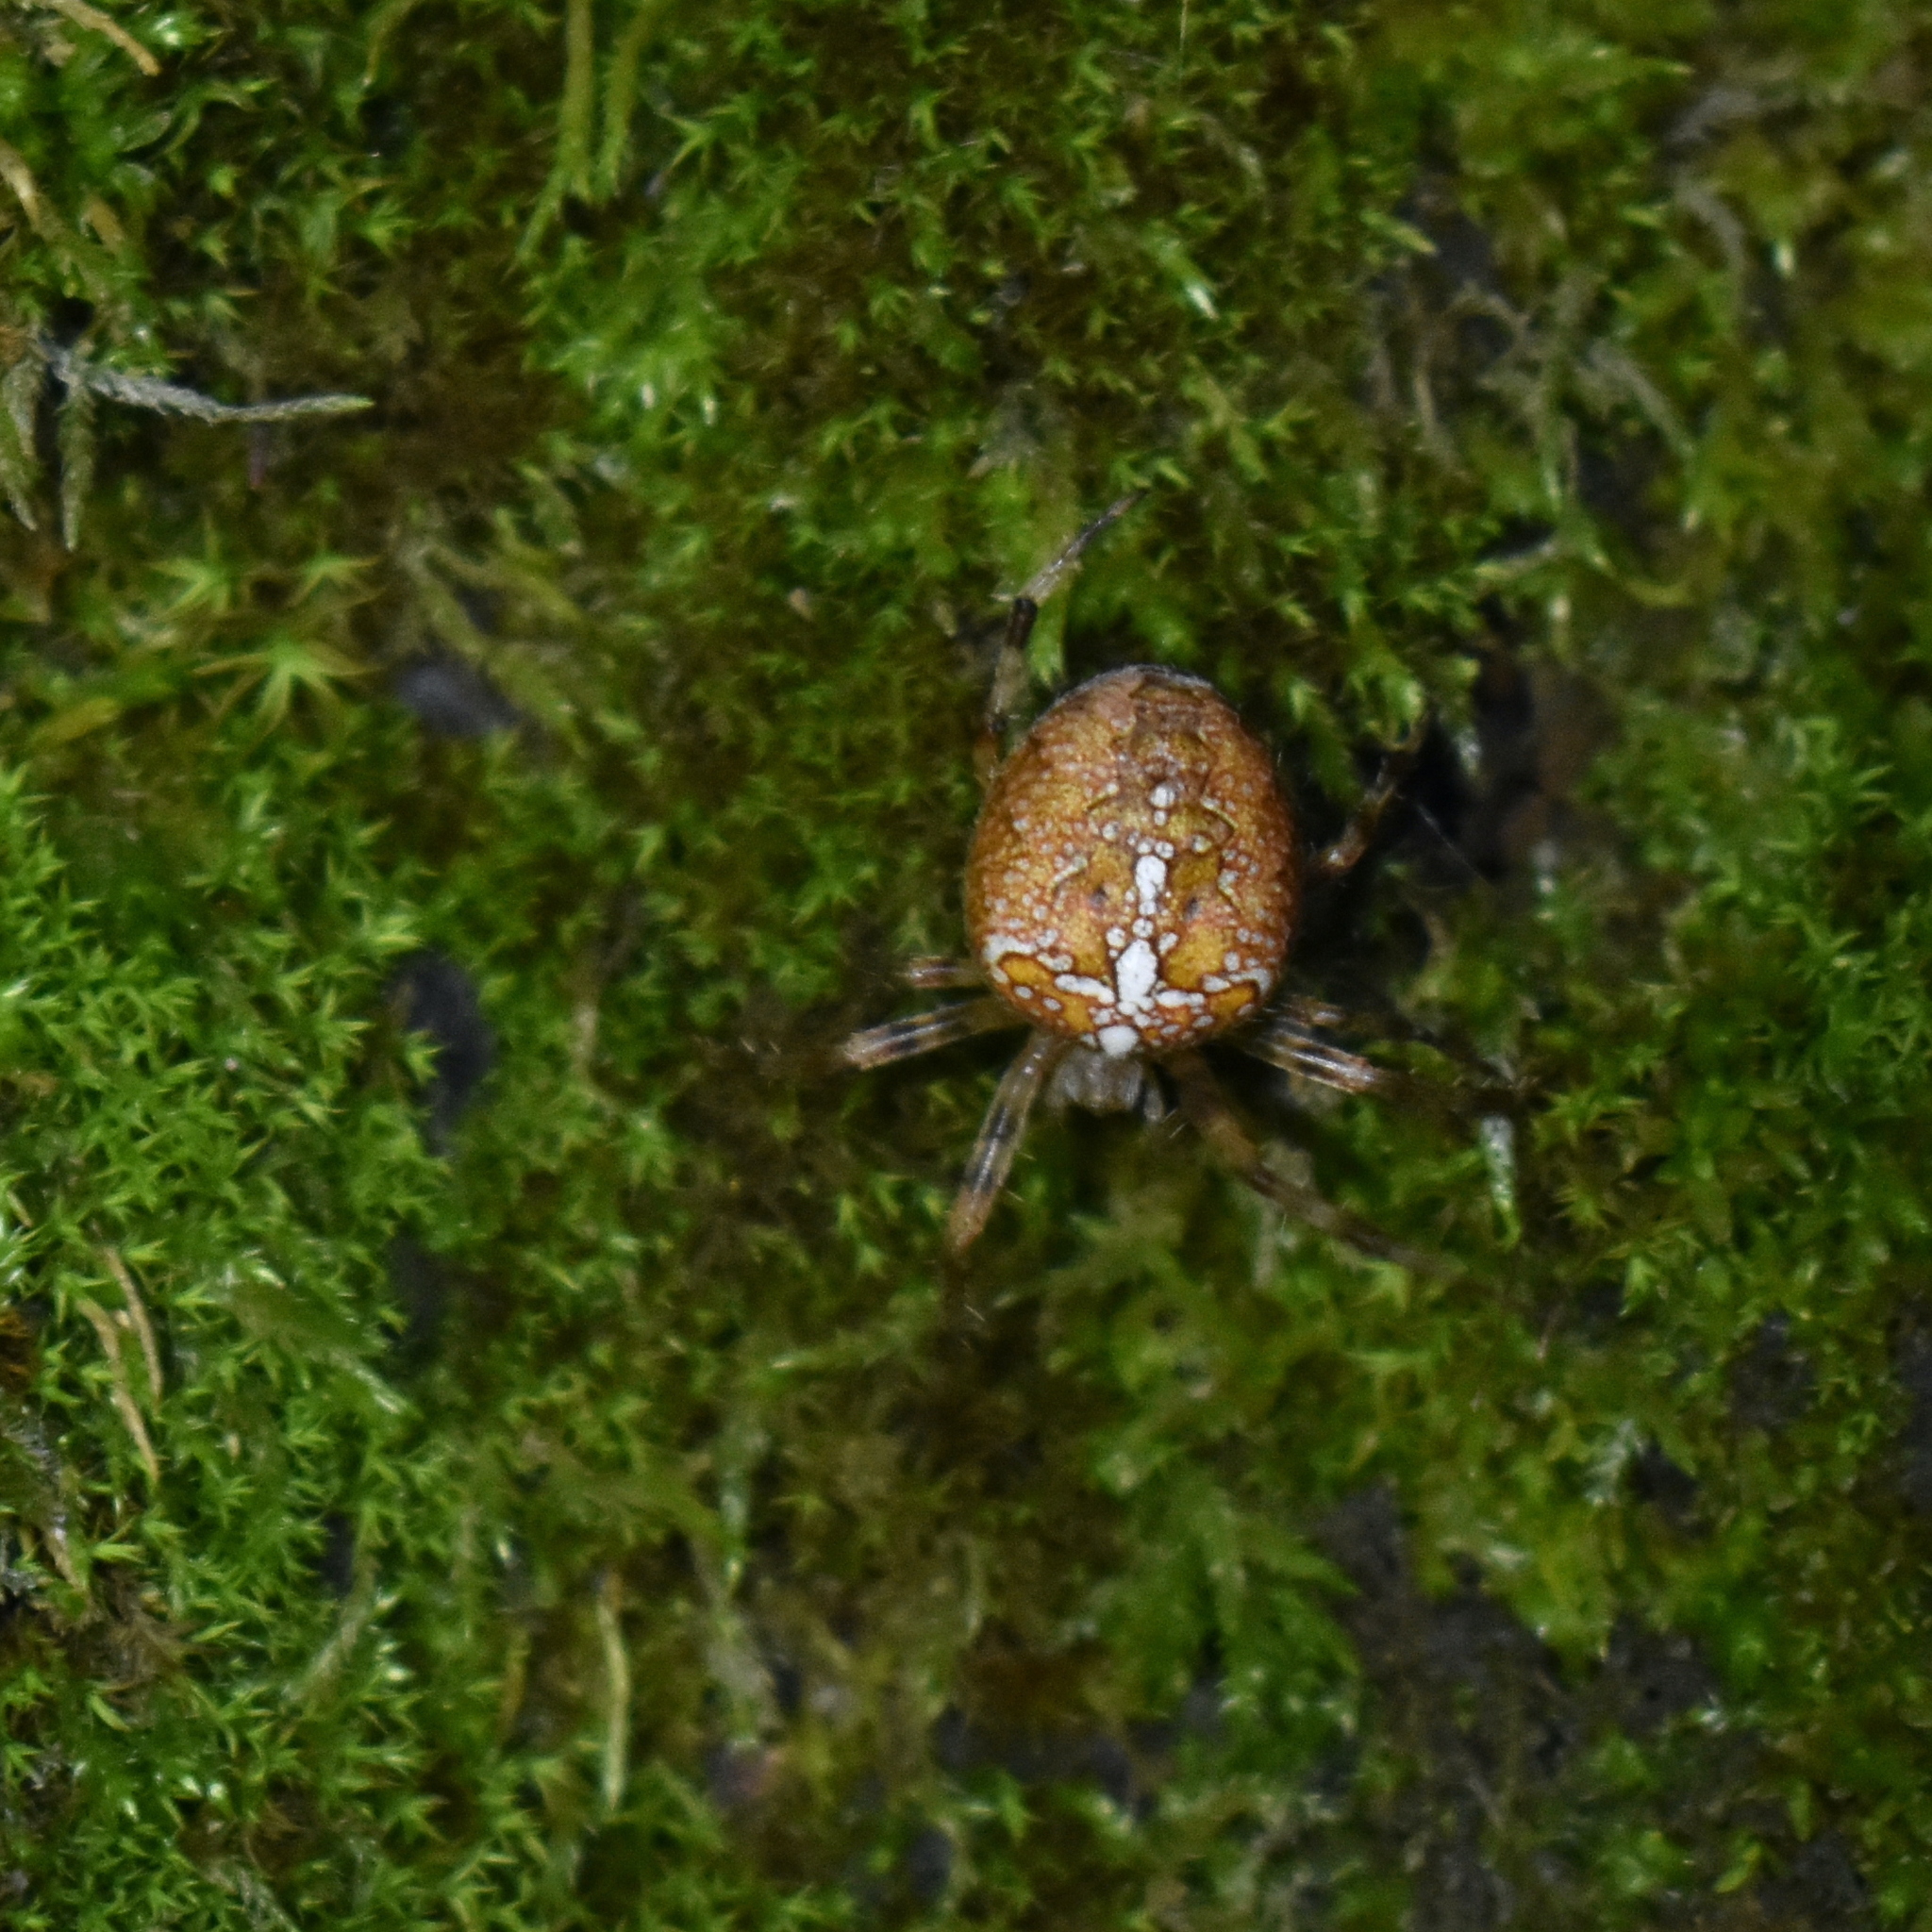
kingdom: Animalia
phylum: Arthropoda
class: Arachnida
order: Araneae
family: Araneidae
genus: Araneus
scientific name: Araneus diadematus
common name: Cross orbweaver
